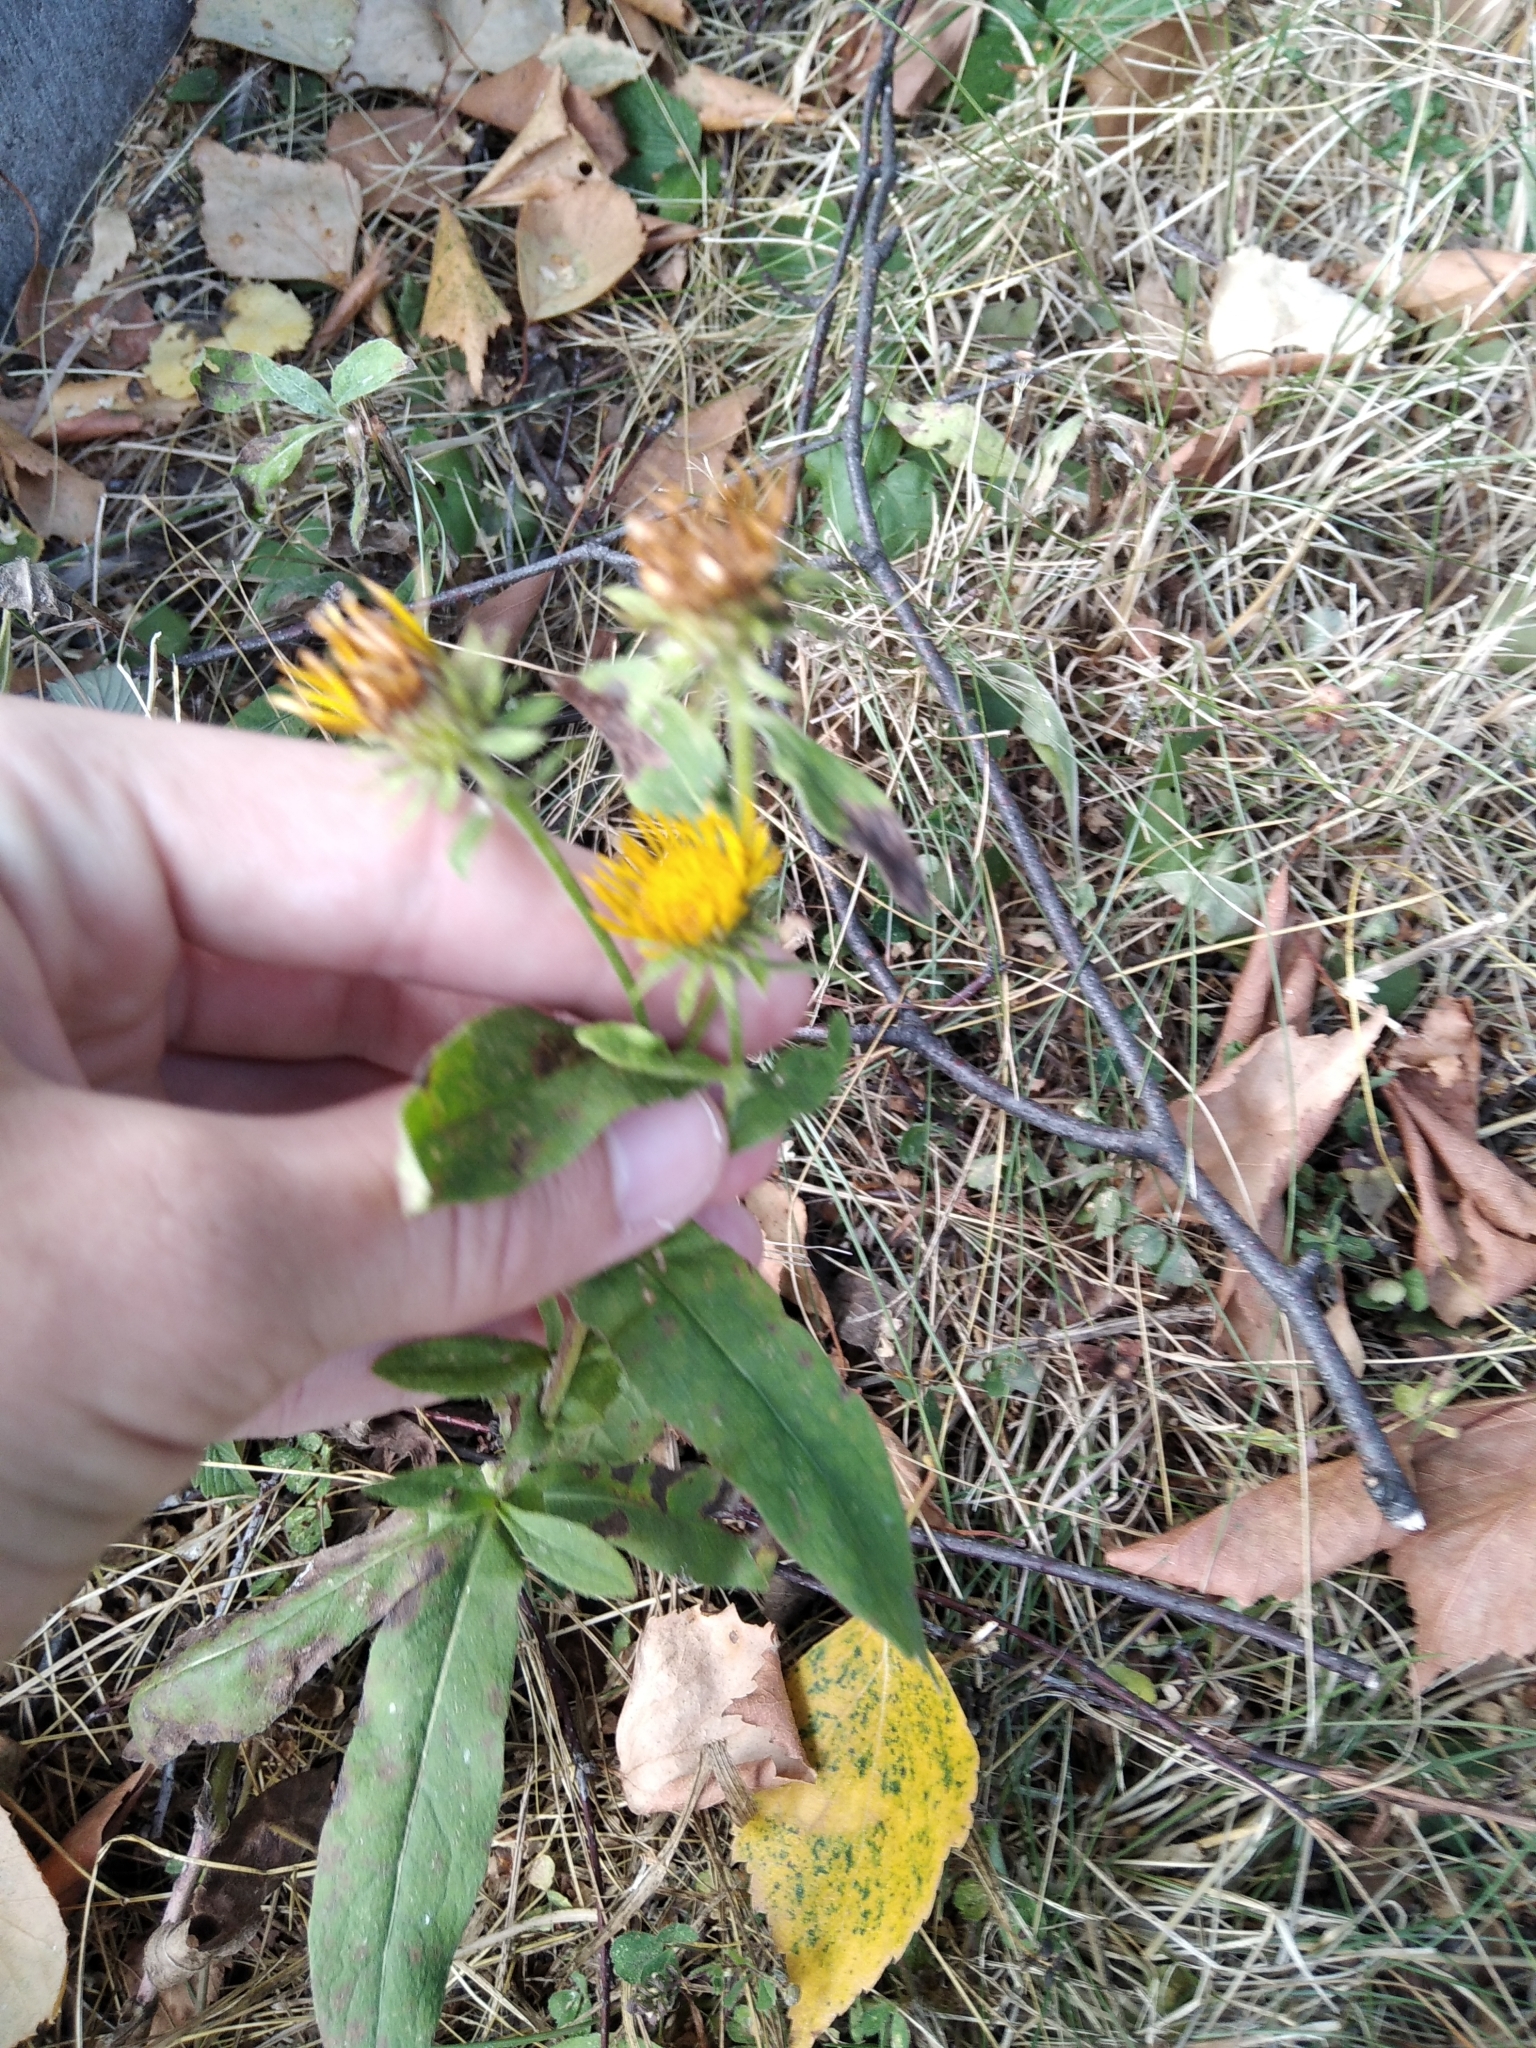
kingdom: Plantae
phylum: Tracheophyta
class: Magnoliopsida
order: Asterales
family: Asteraceae
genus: Pentanema
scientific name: Pentanema britannicum
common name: British elecampane
